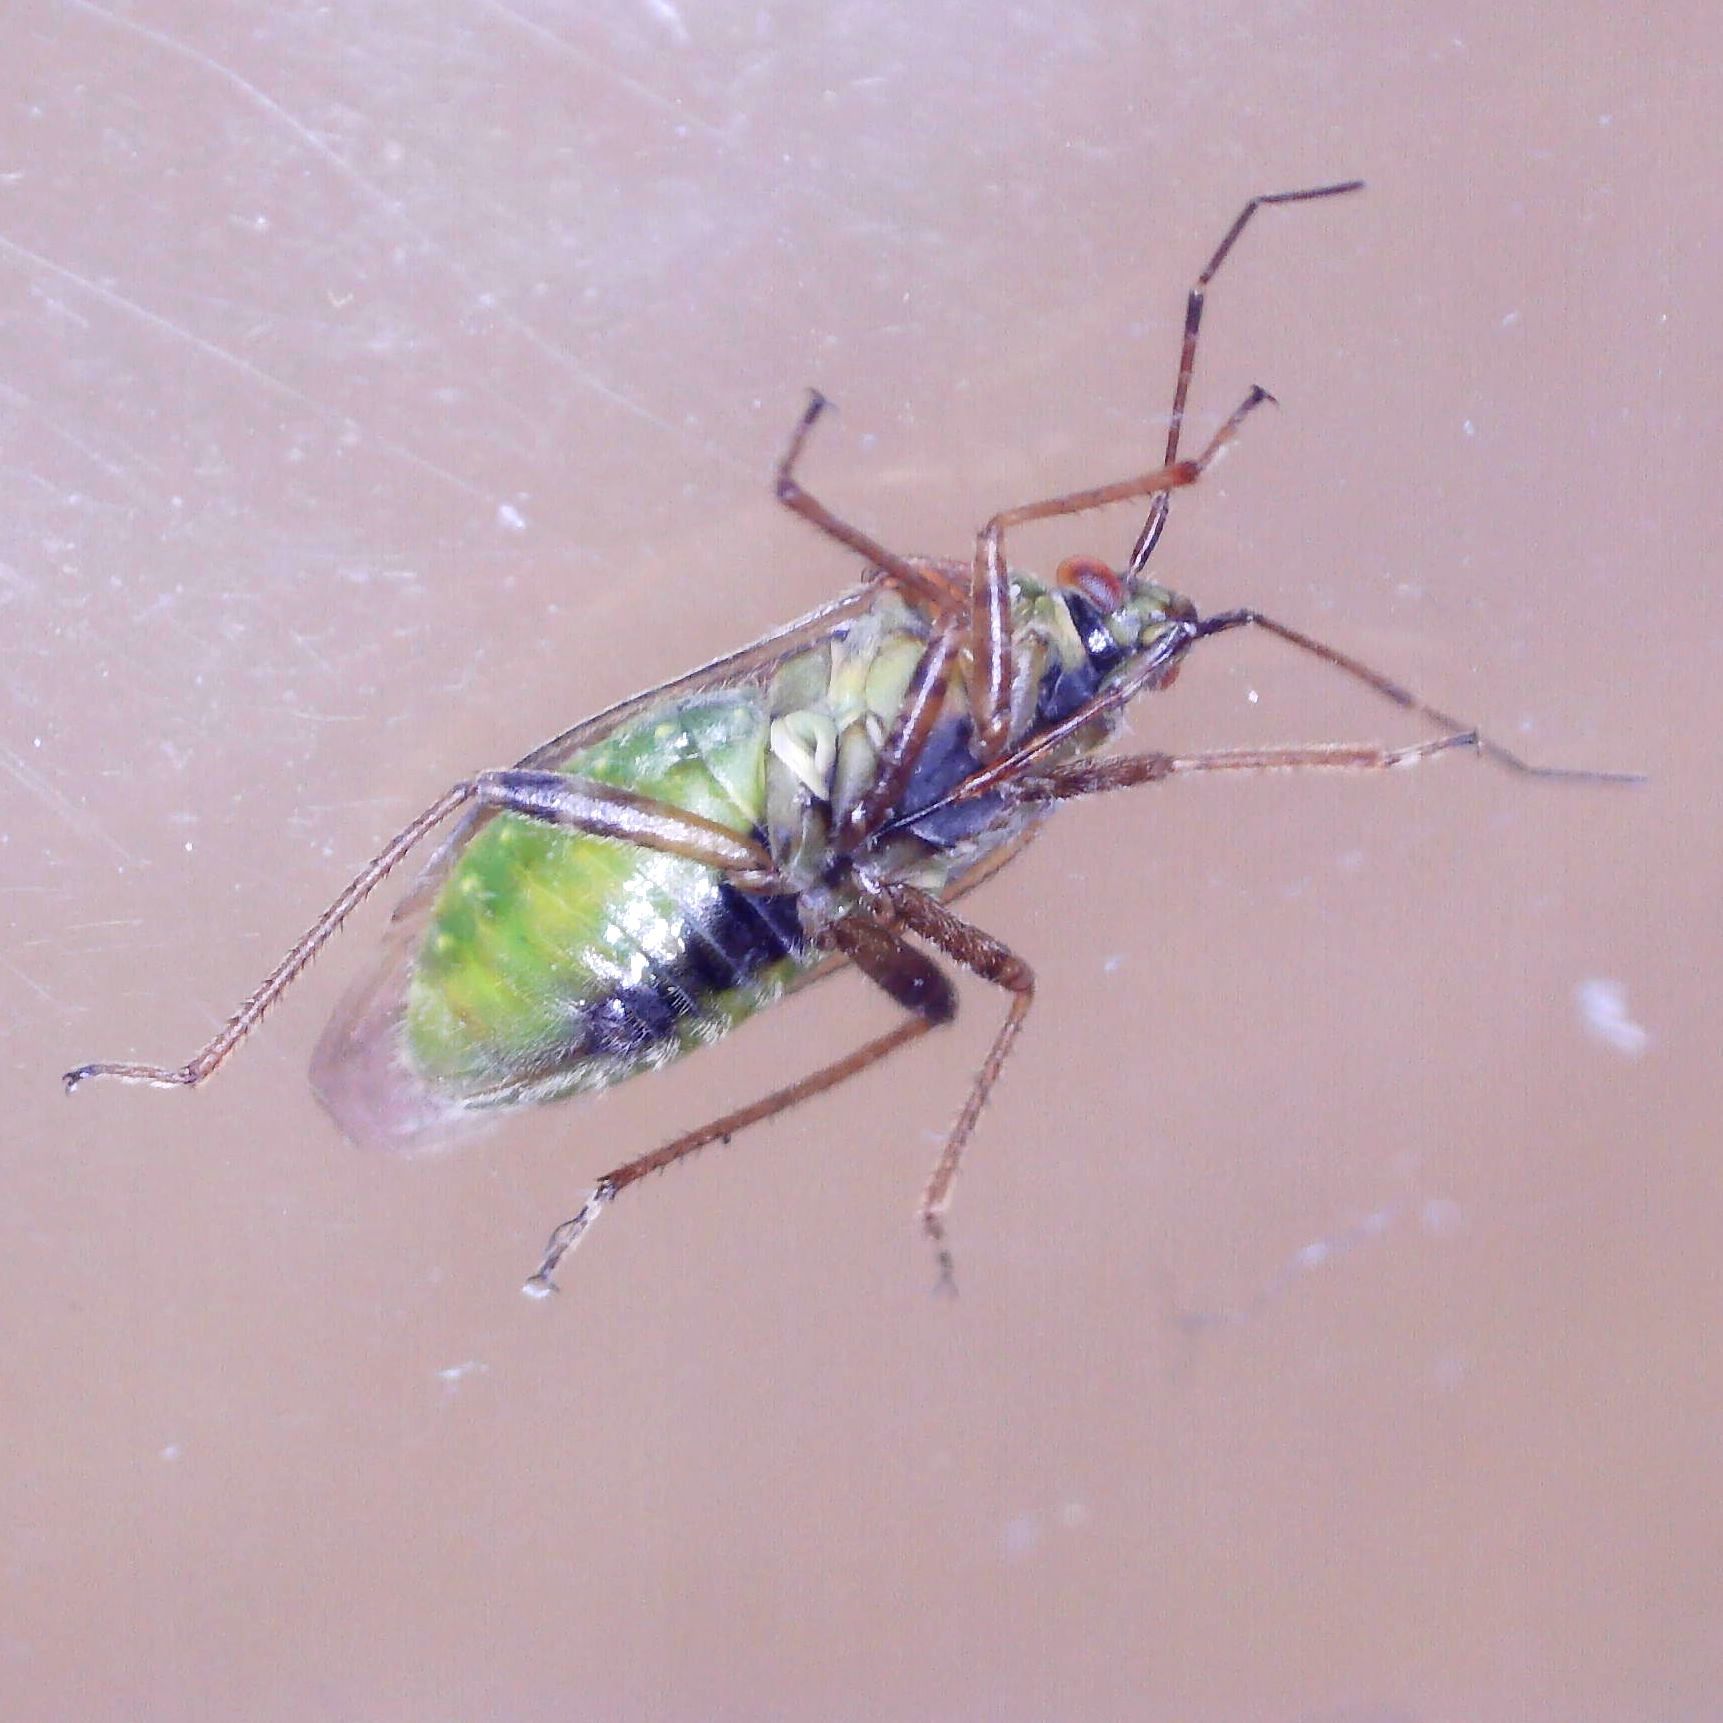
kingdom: Animalia
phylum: Arthropoda
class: Insecta
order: Hemiptera
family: Miridae
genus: Lygus
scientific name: Lygus rugulipennis
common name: European tarnished plant bug
